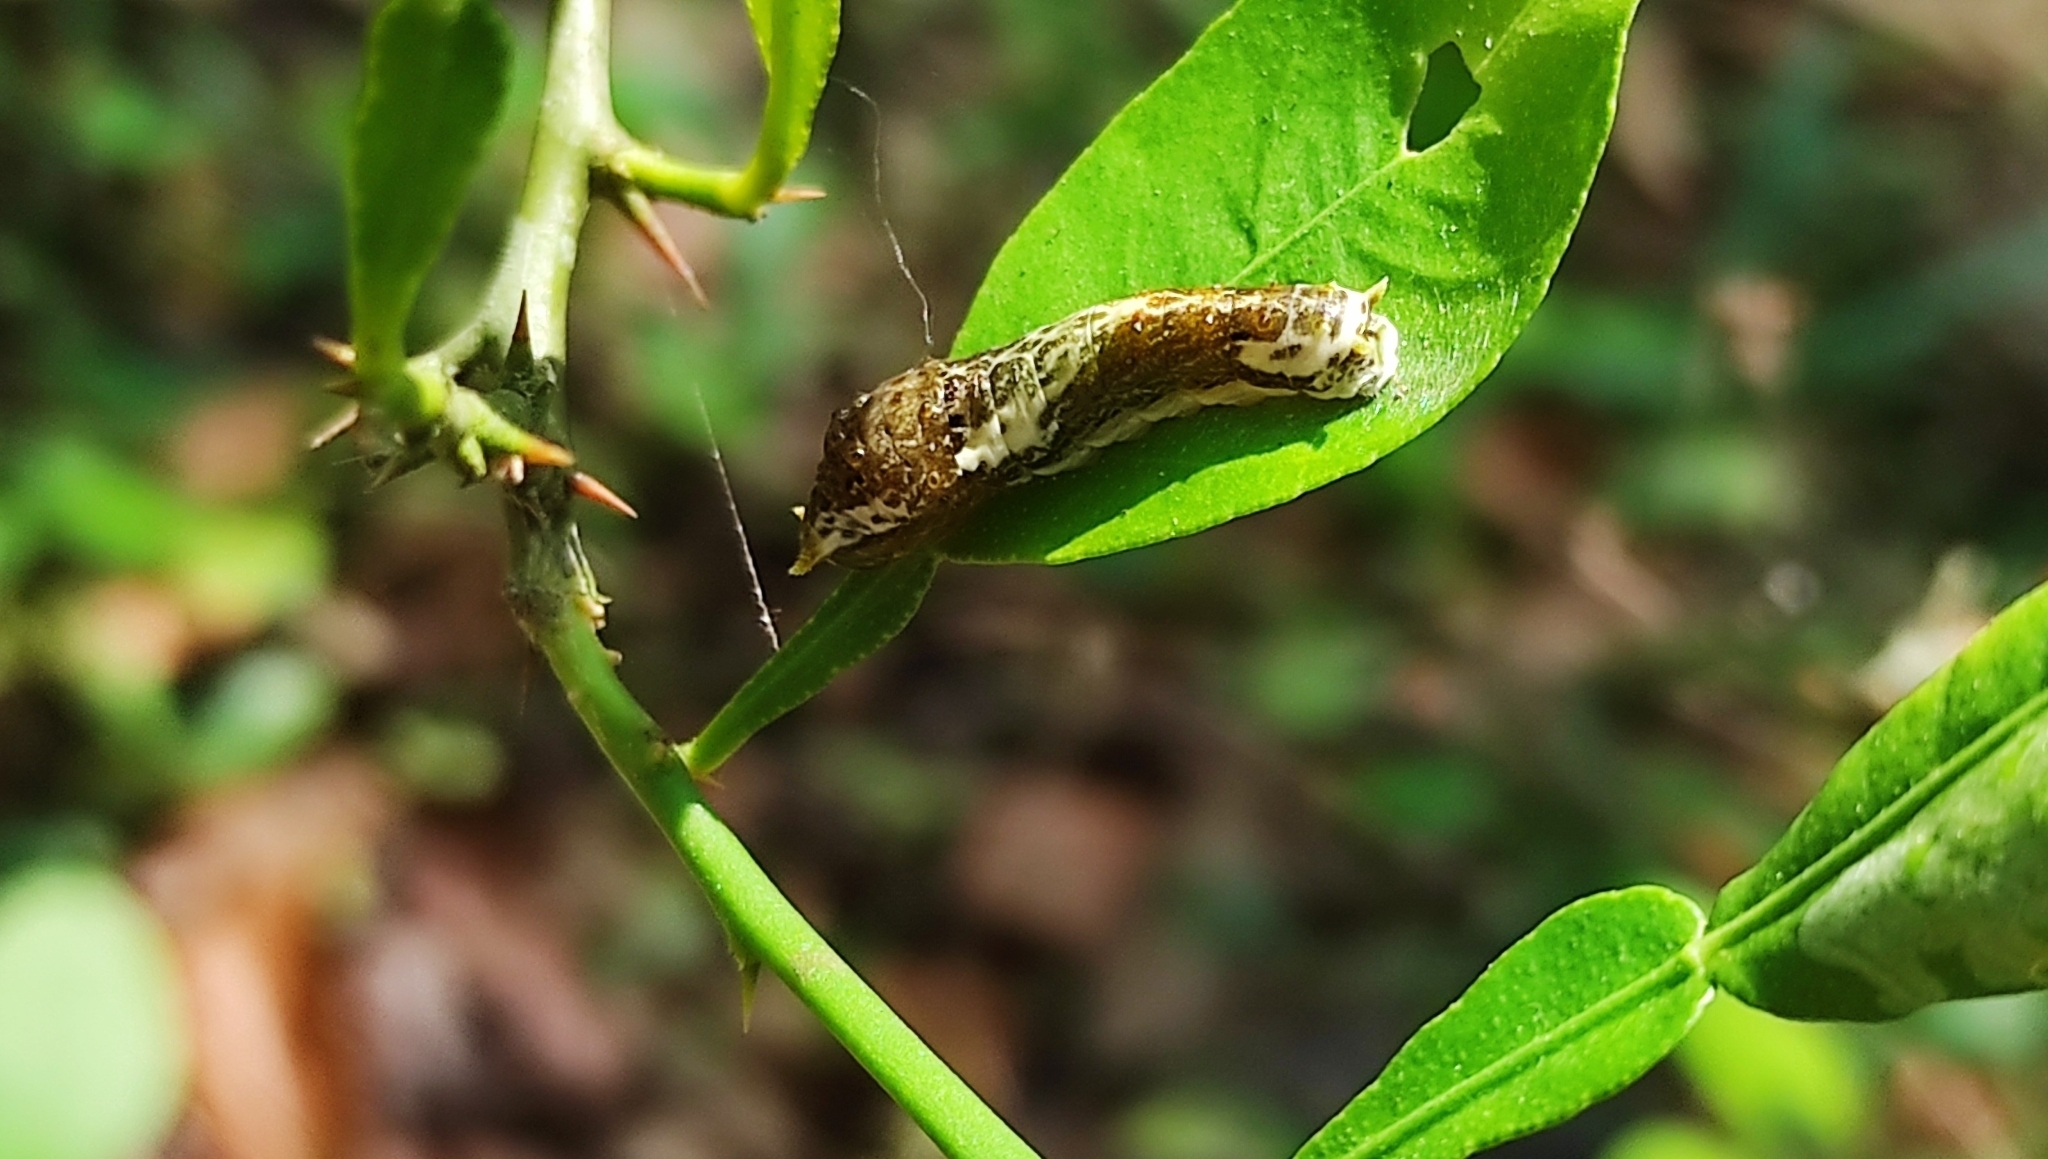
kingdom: Animalia
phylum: Arthropoda
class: Insecta
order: Lepidoptera
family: Papilionidae
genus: Papilio
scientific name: Papilio polytes
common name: Common mormon
